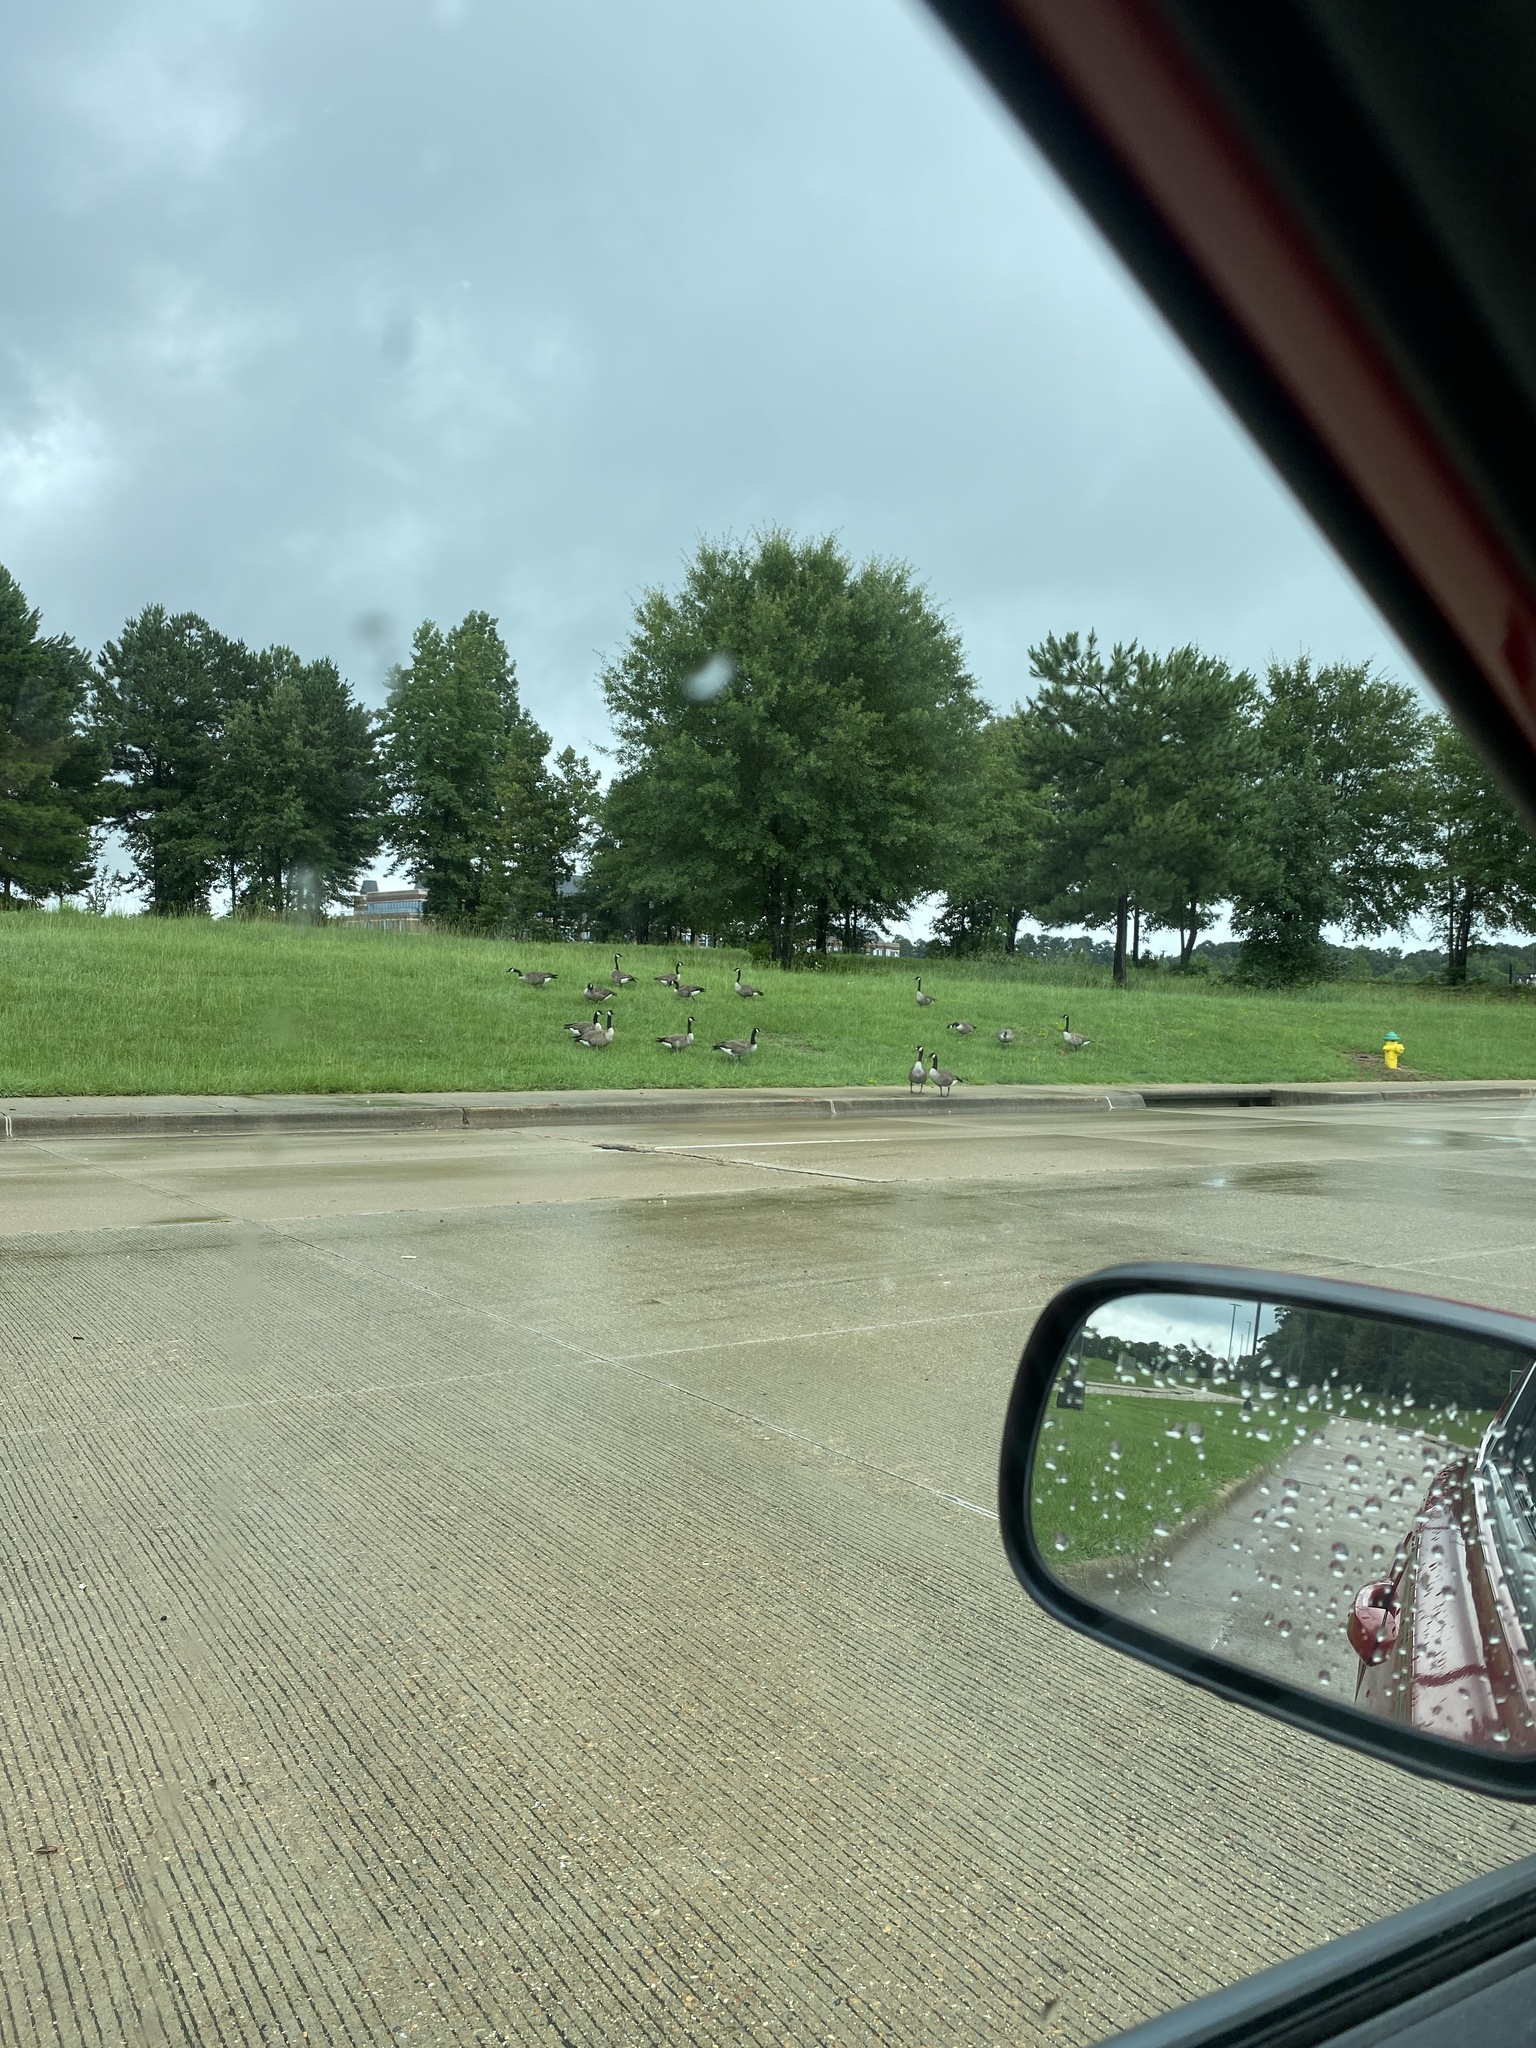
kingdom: Animalia
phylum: Chordata
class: Aves
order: Anseriformes
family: Anatidae
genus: Branta
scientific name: Branta canadensis
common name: Canada goose
